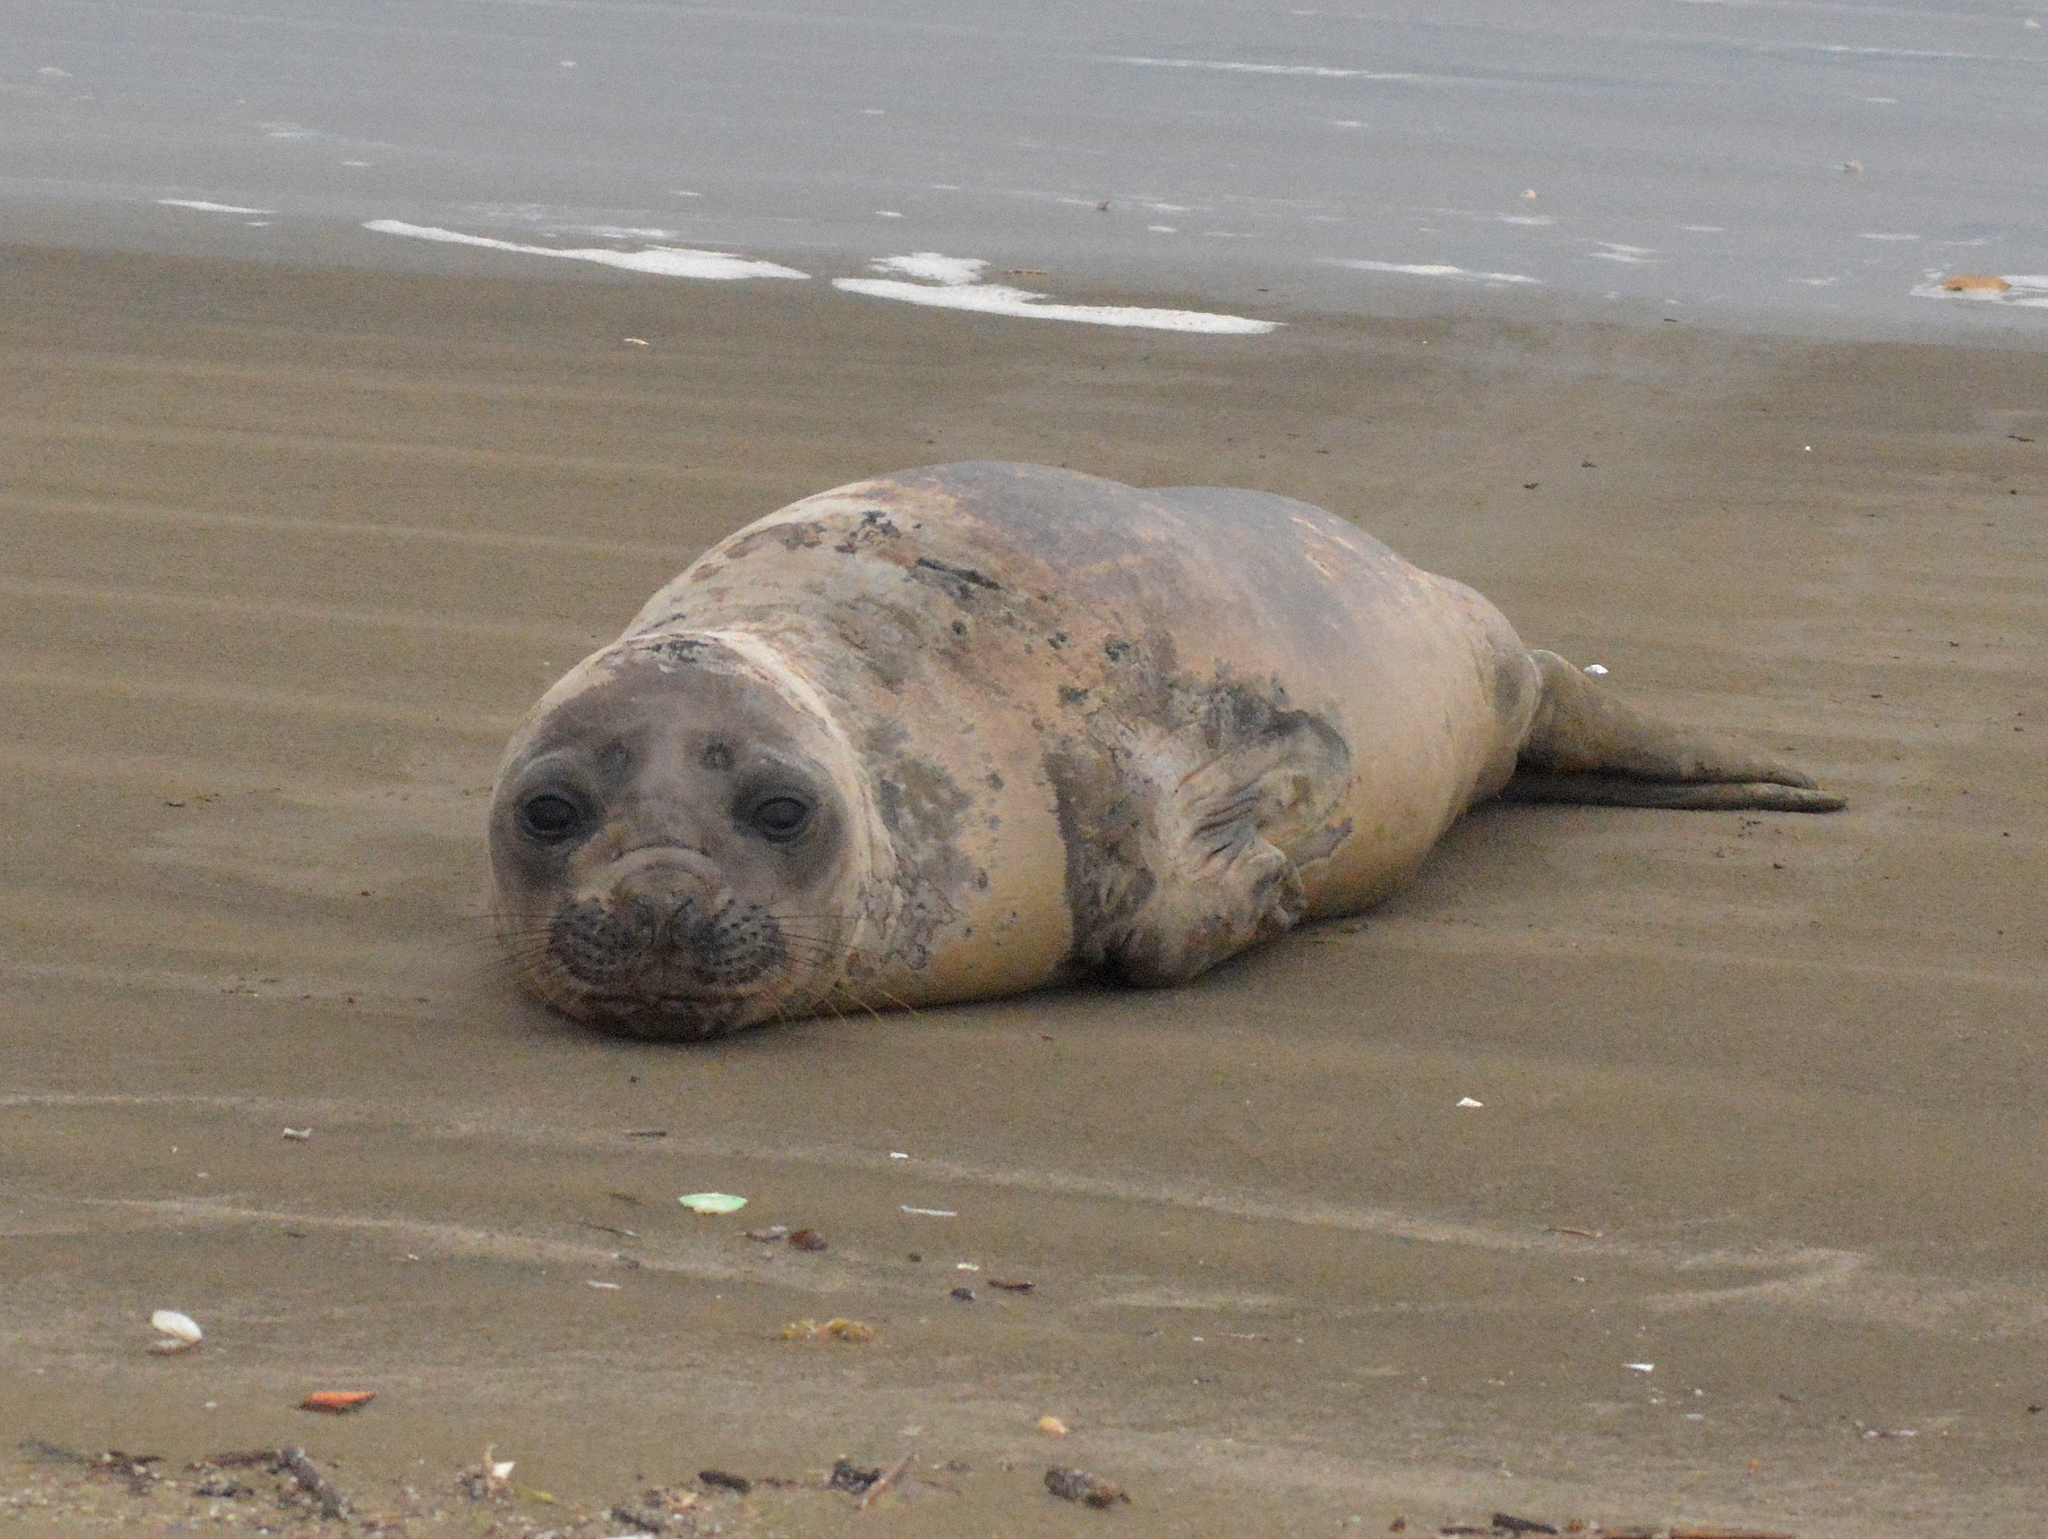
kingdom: Animalia
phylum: Chordata
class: Mammalia
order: Carnivora
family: Phocidae
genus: Mirounga
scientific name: Mirounga leonina
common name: Southern elephant seal
